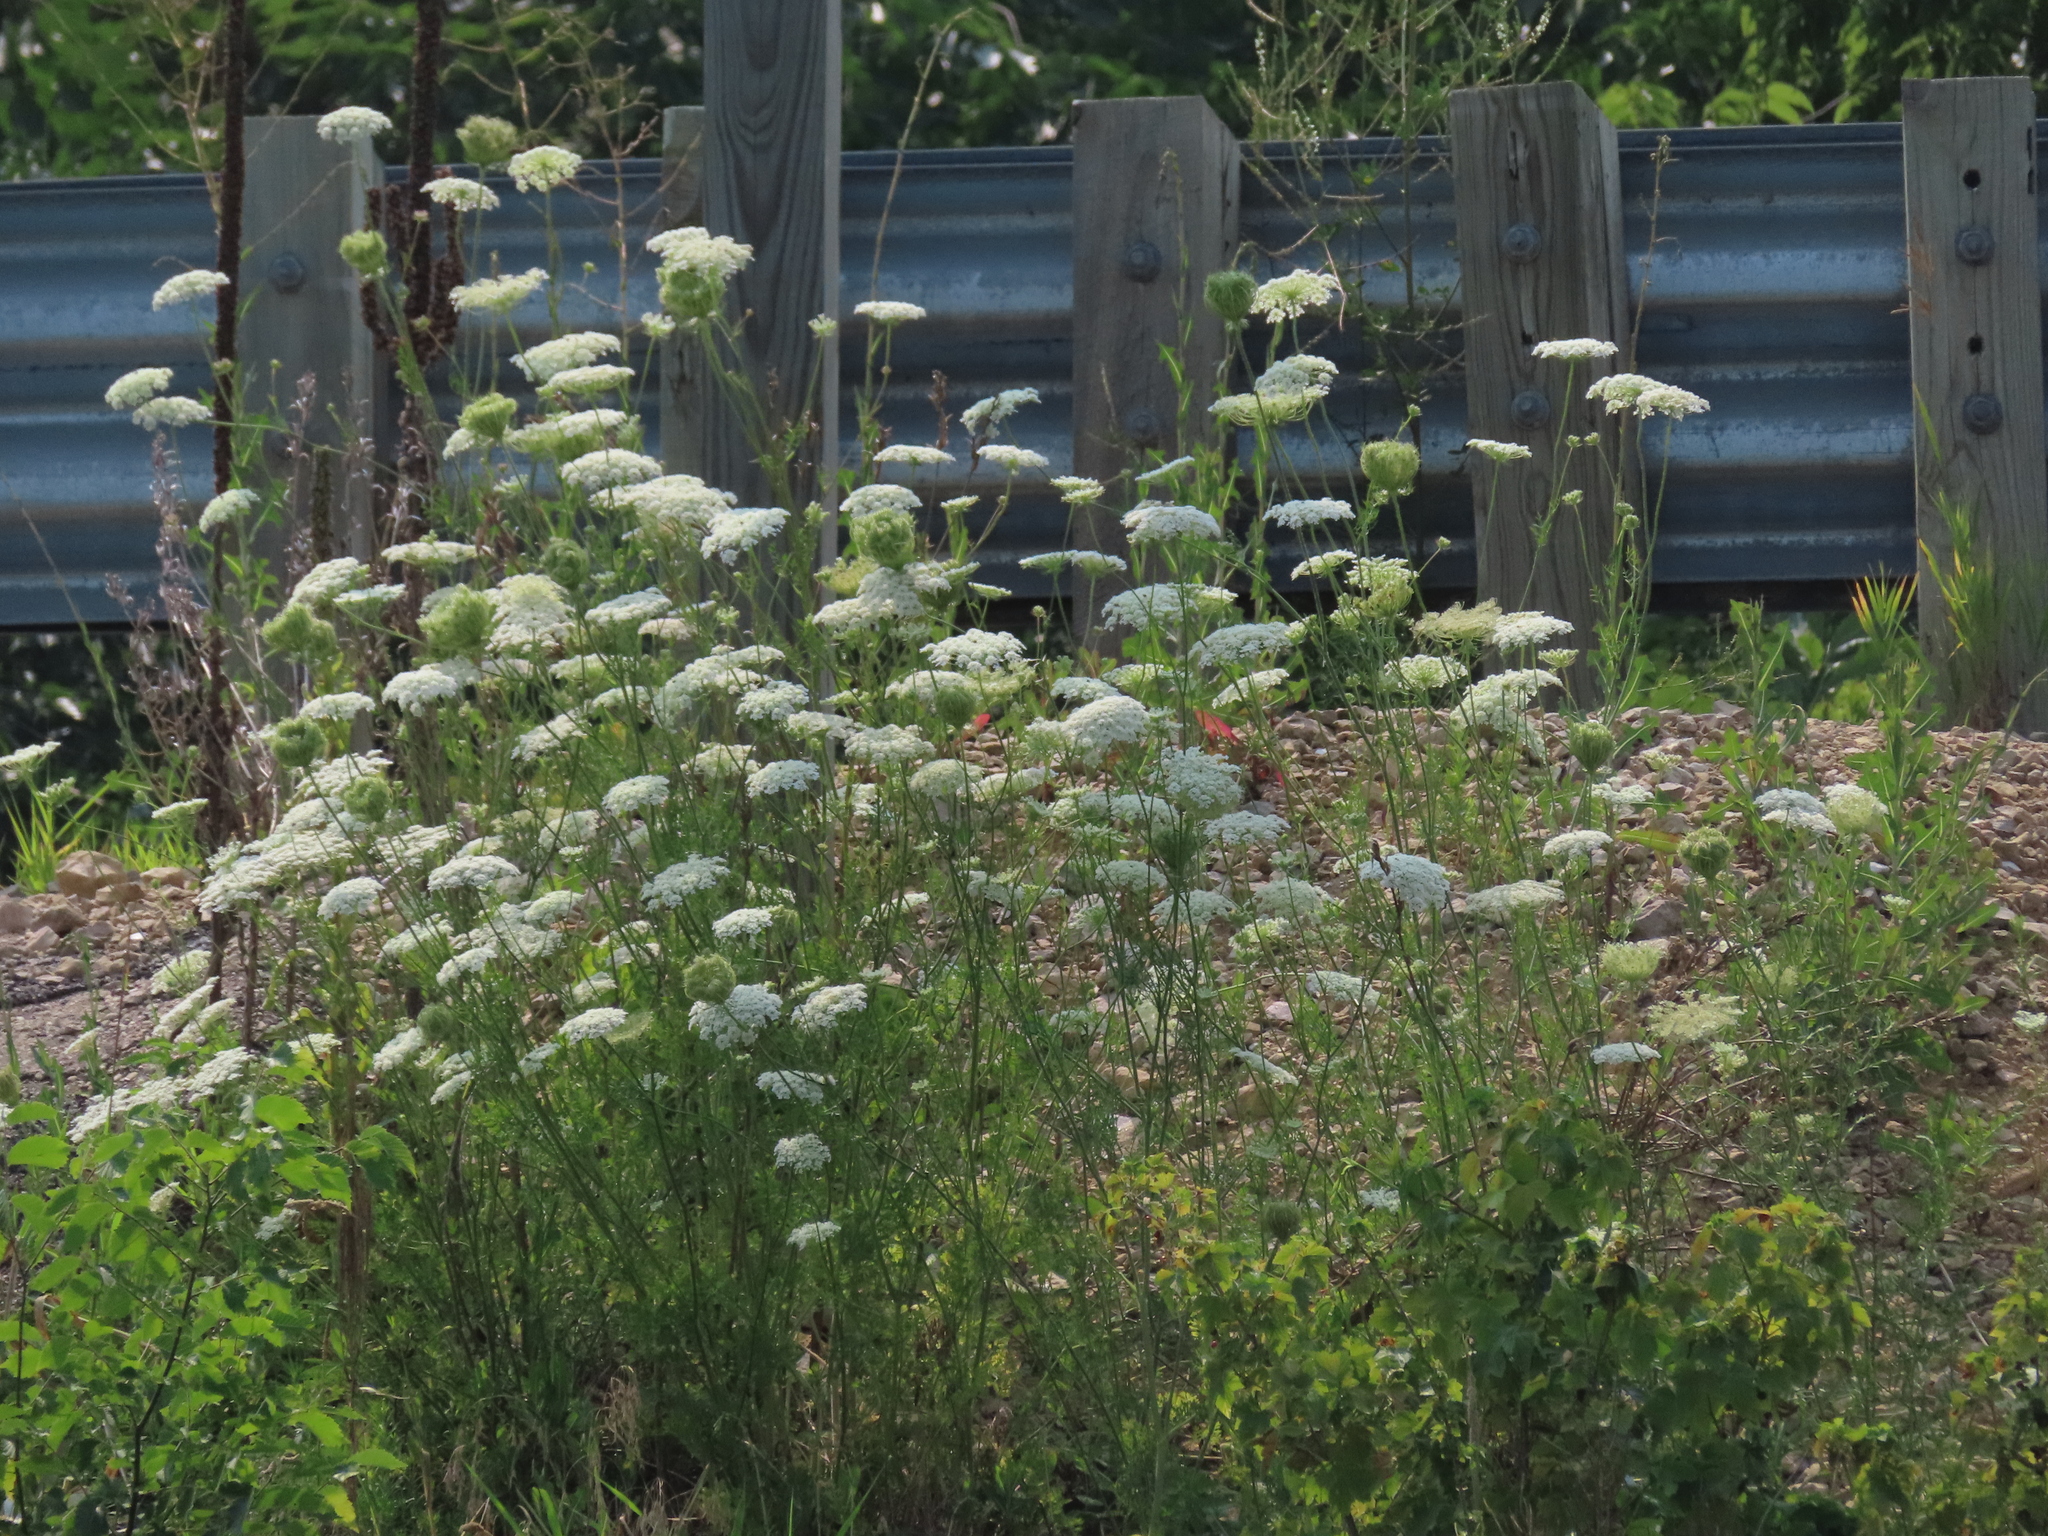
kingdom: Plantae
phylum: Tracheophyta
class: Magnoliopsida
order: Apiales
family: Apiaceae
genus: Daucus
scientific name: Daucus carota
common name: Wild carrot
